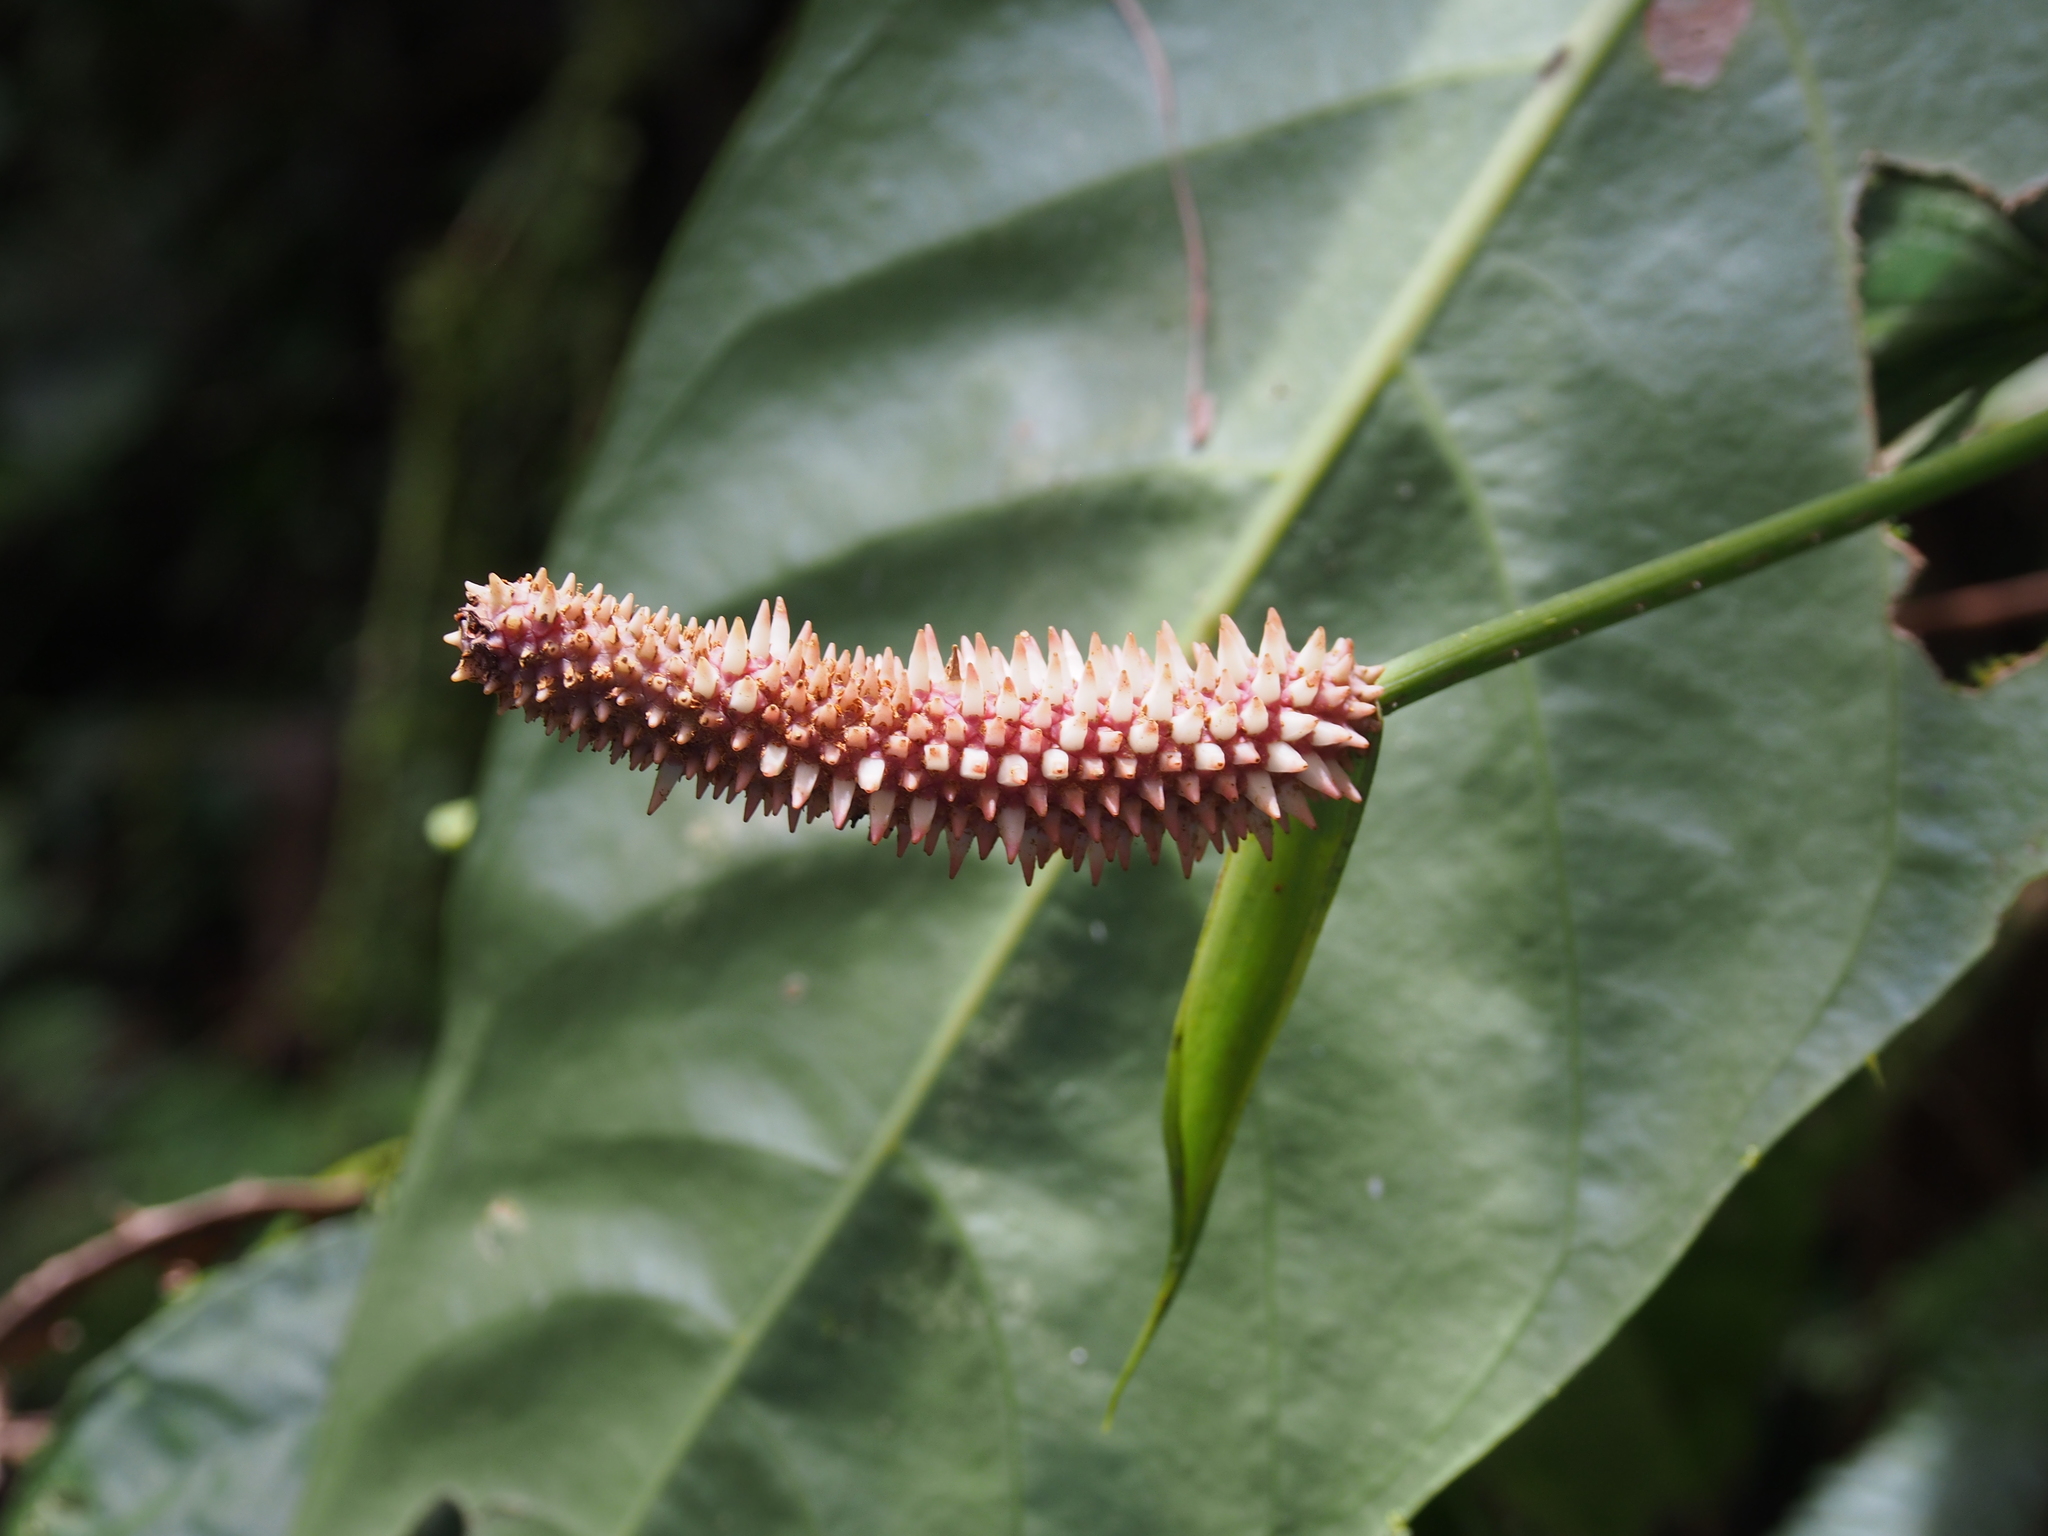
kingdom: Plantae
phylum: Tracheophyta
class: Liliopsida
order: Alismatales
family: Araceae
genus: Anthurium
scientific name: Anthurium consobrinum
